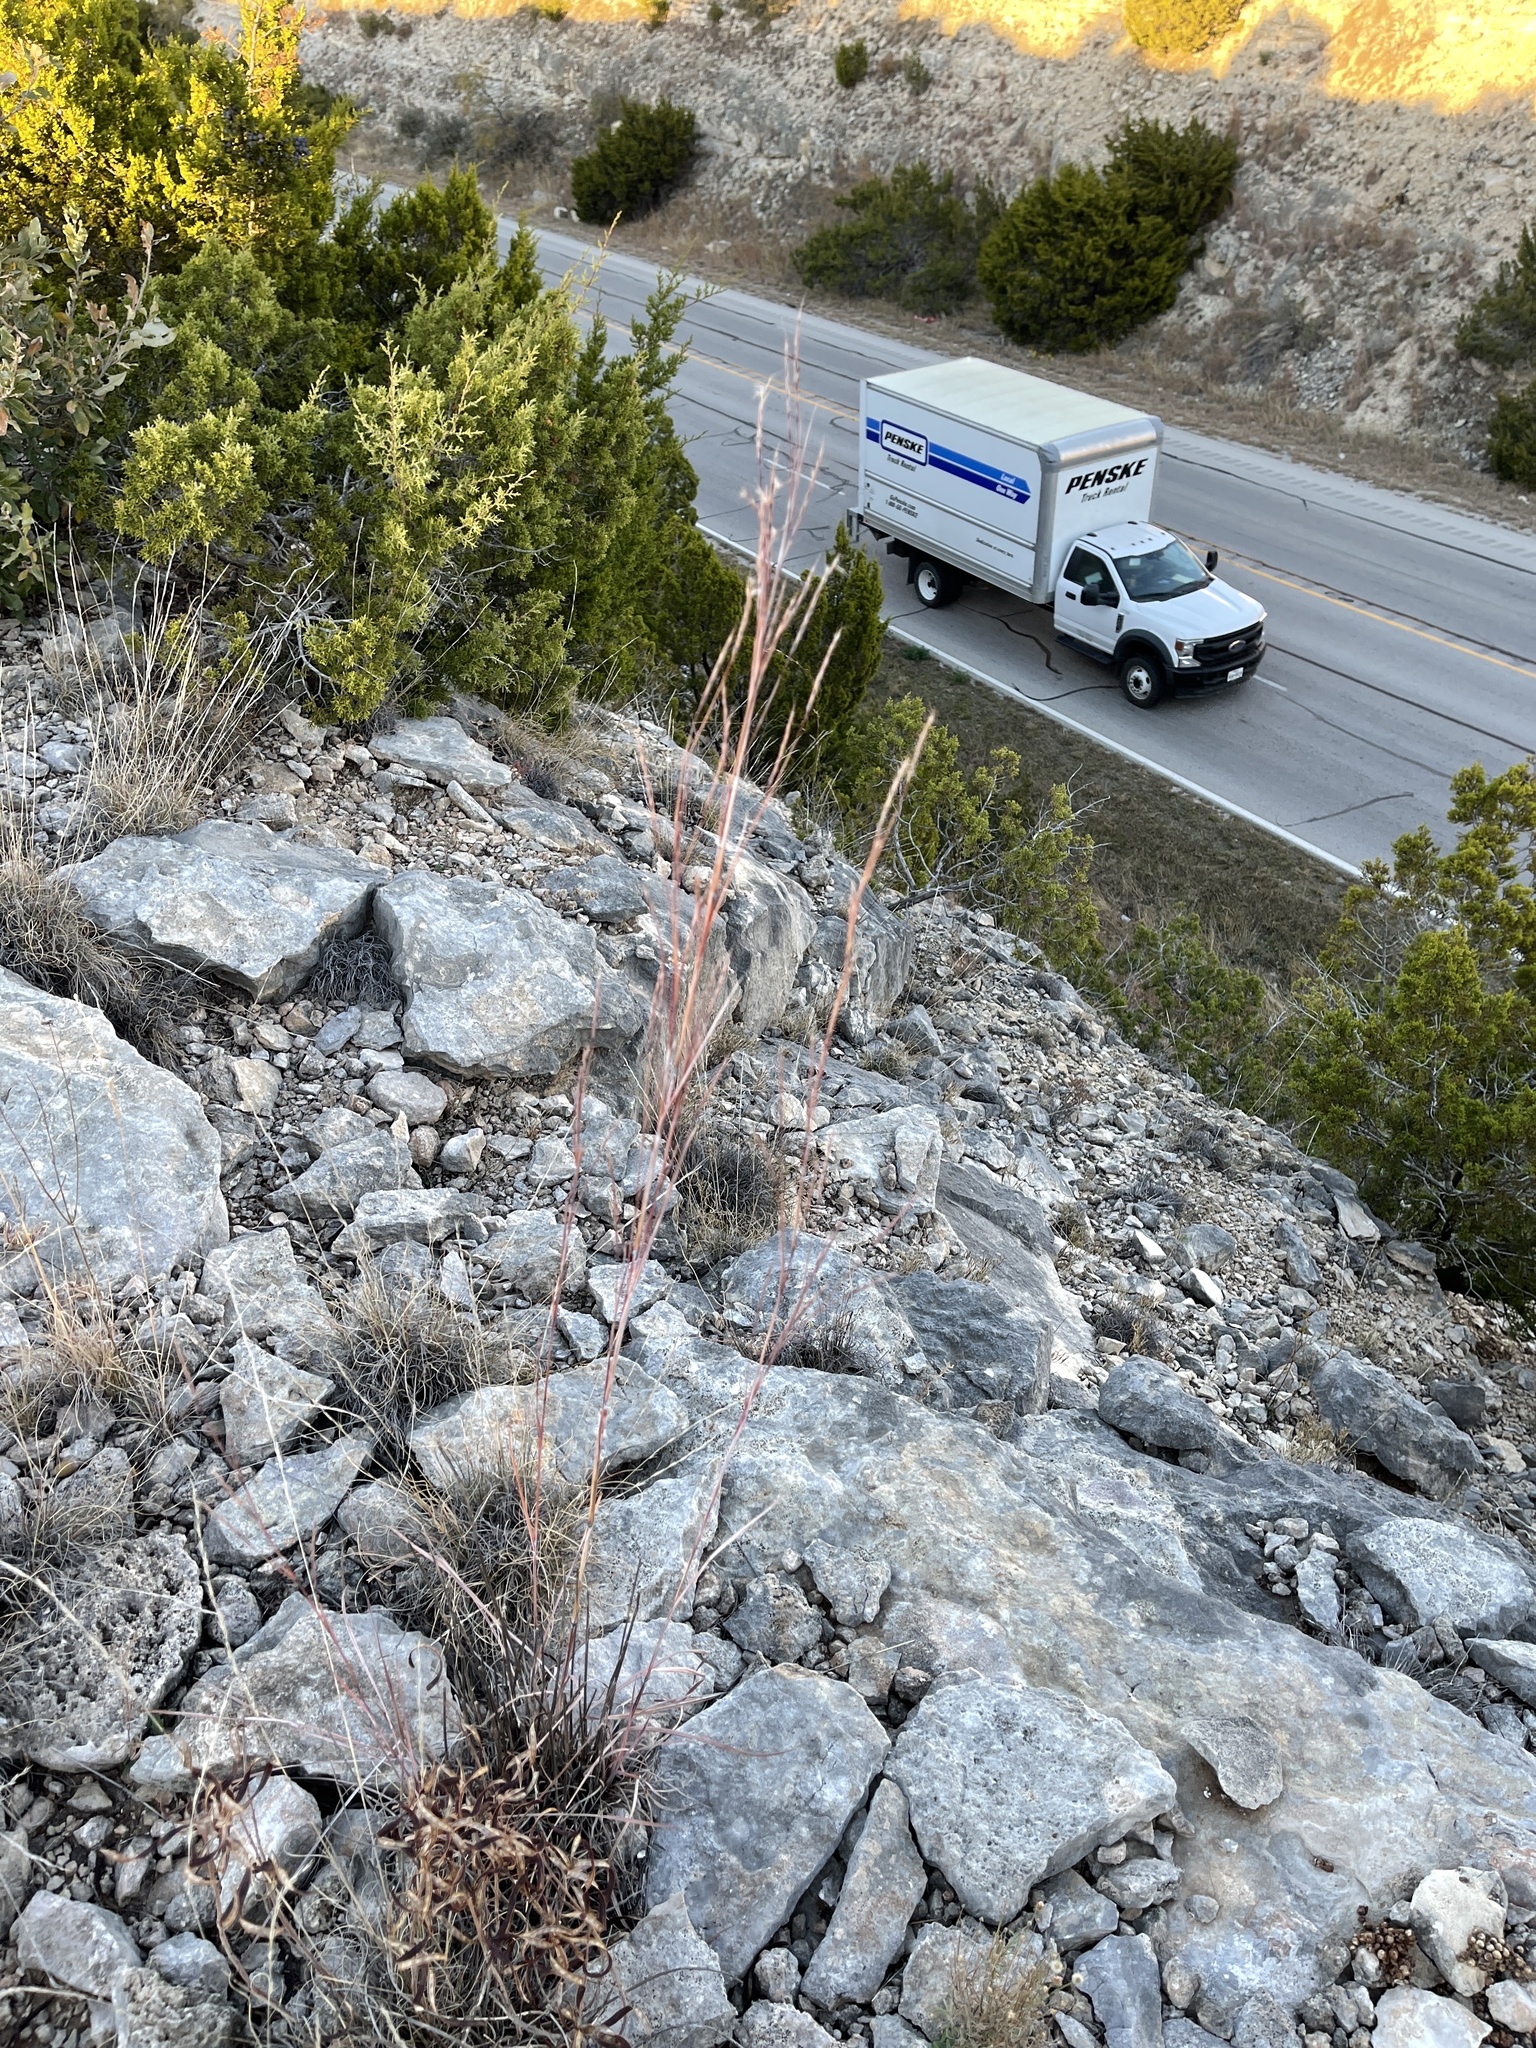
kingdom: Plantae
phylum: Tracheophyta
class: Liliopsida
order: Poales
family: Poaceae
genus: Schizachyrium
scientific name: Schizachyrium scoparium
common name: Little bluestem
